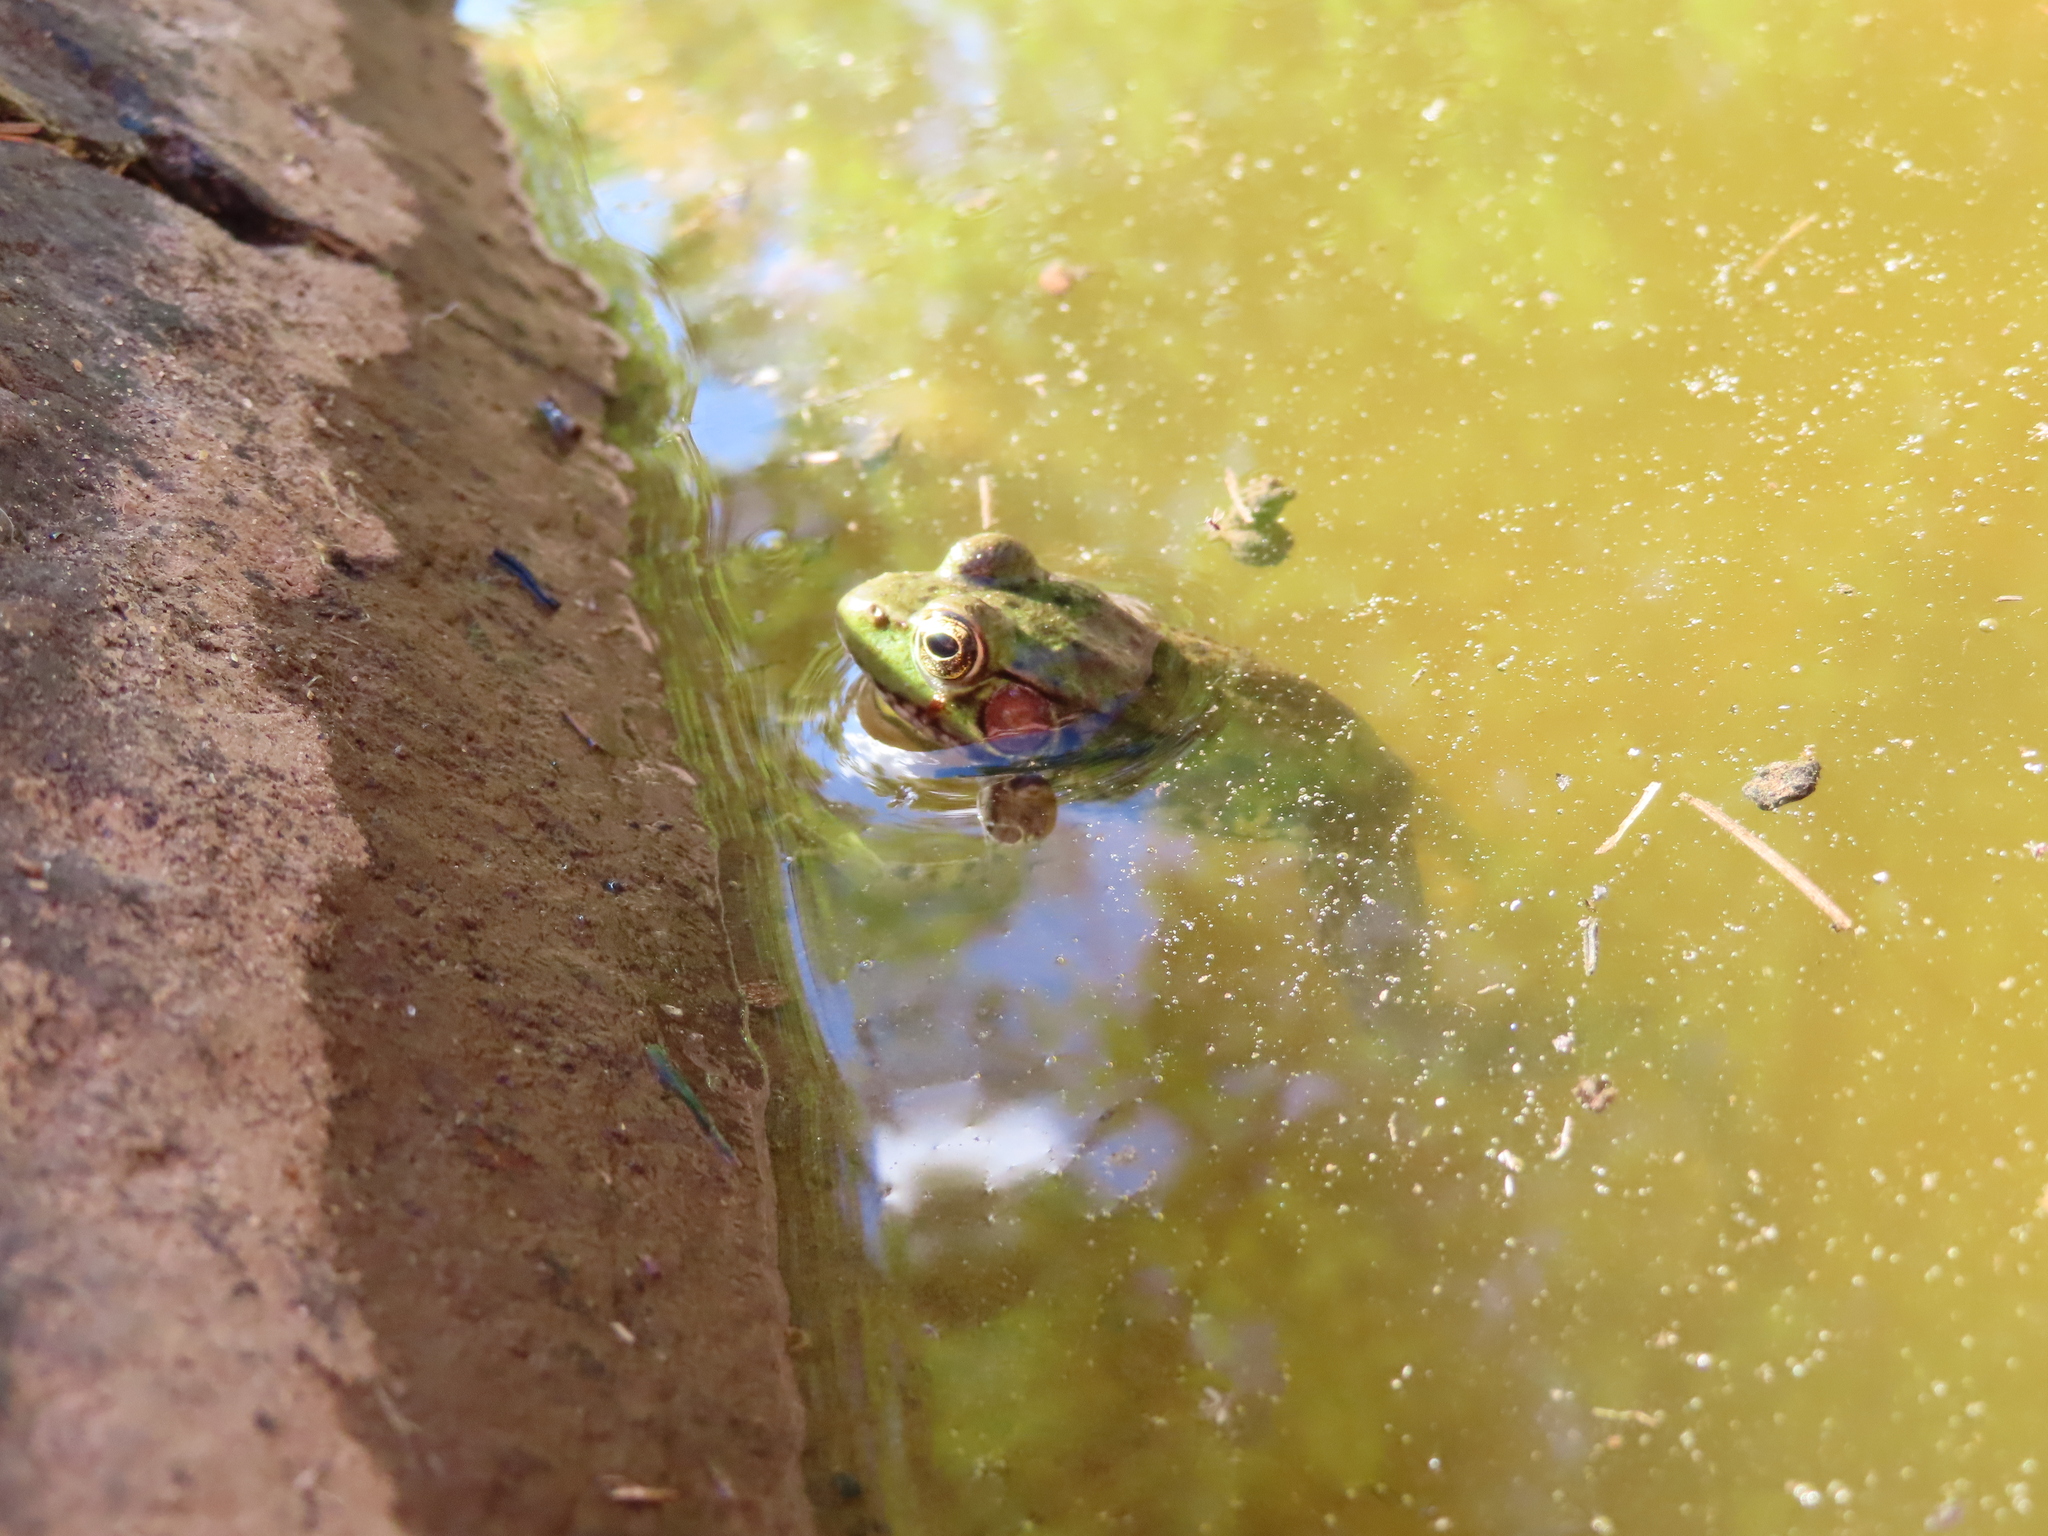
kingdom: Animalia
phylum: Chordata
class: Amphibia
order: Anura
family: Ranidae
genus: Lithobates
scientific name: Lithobates clamitans
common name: Green frog
